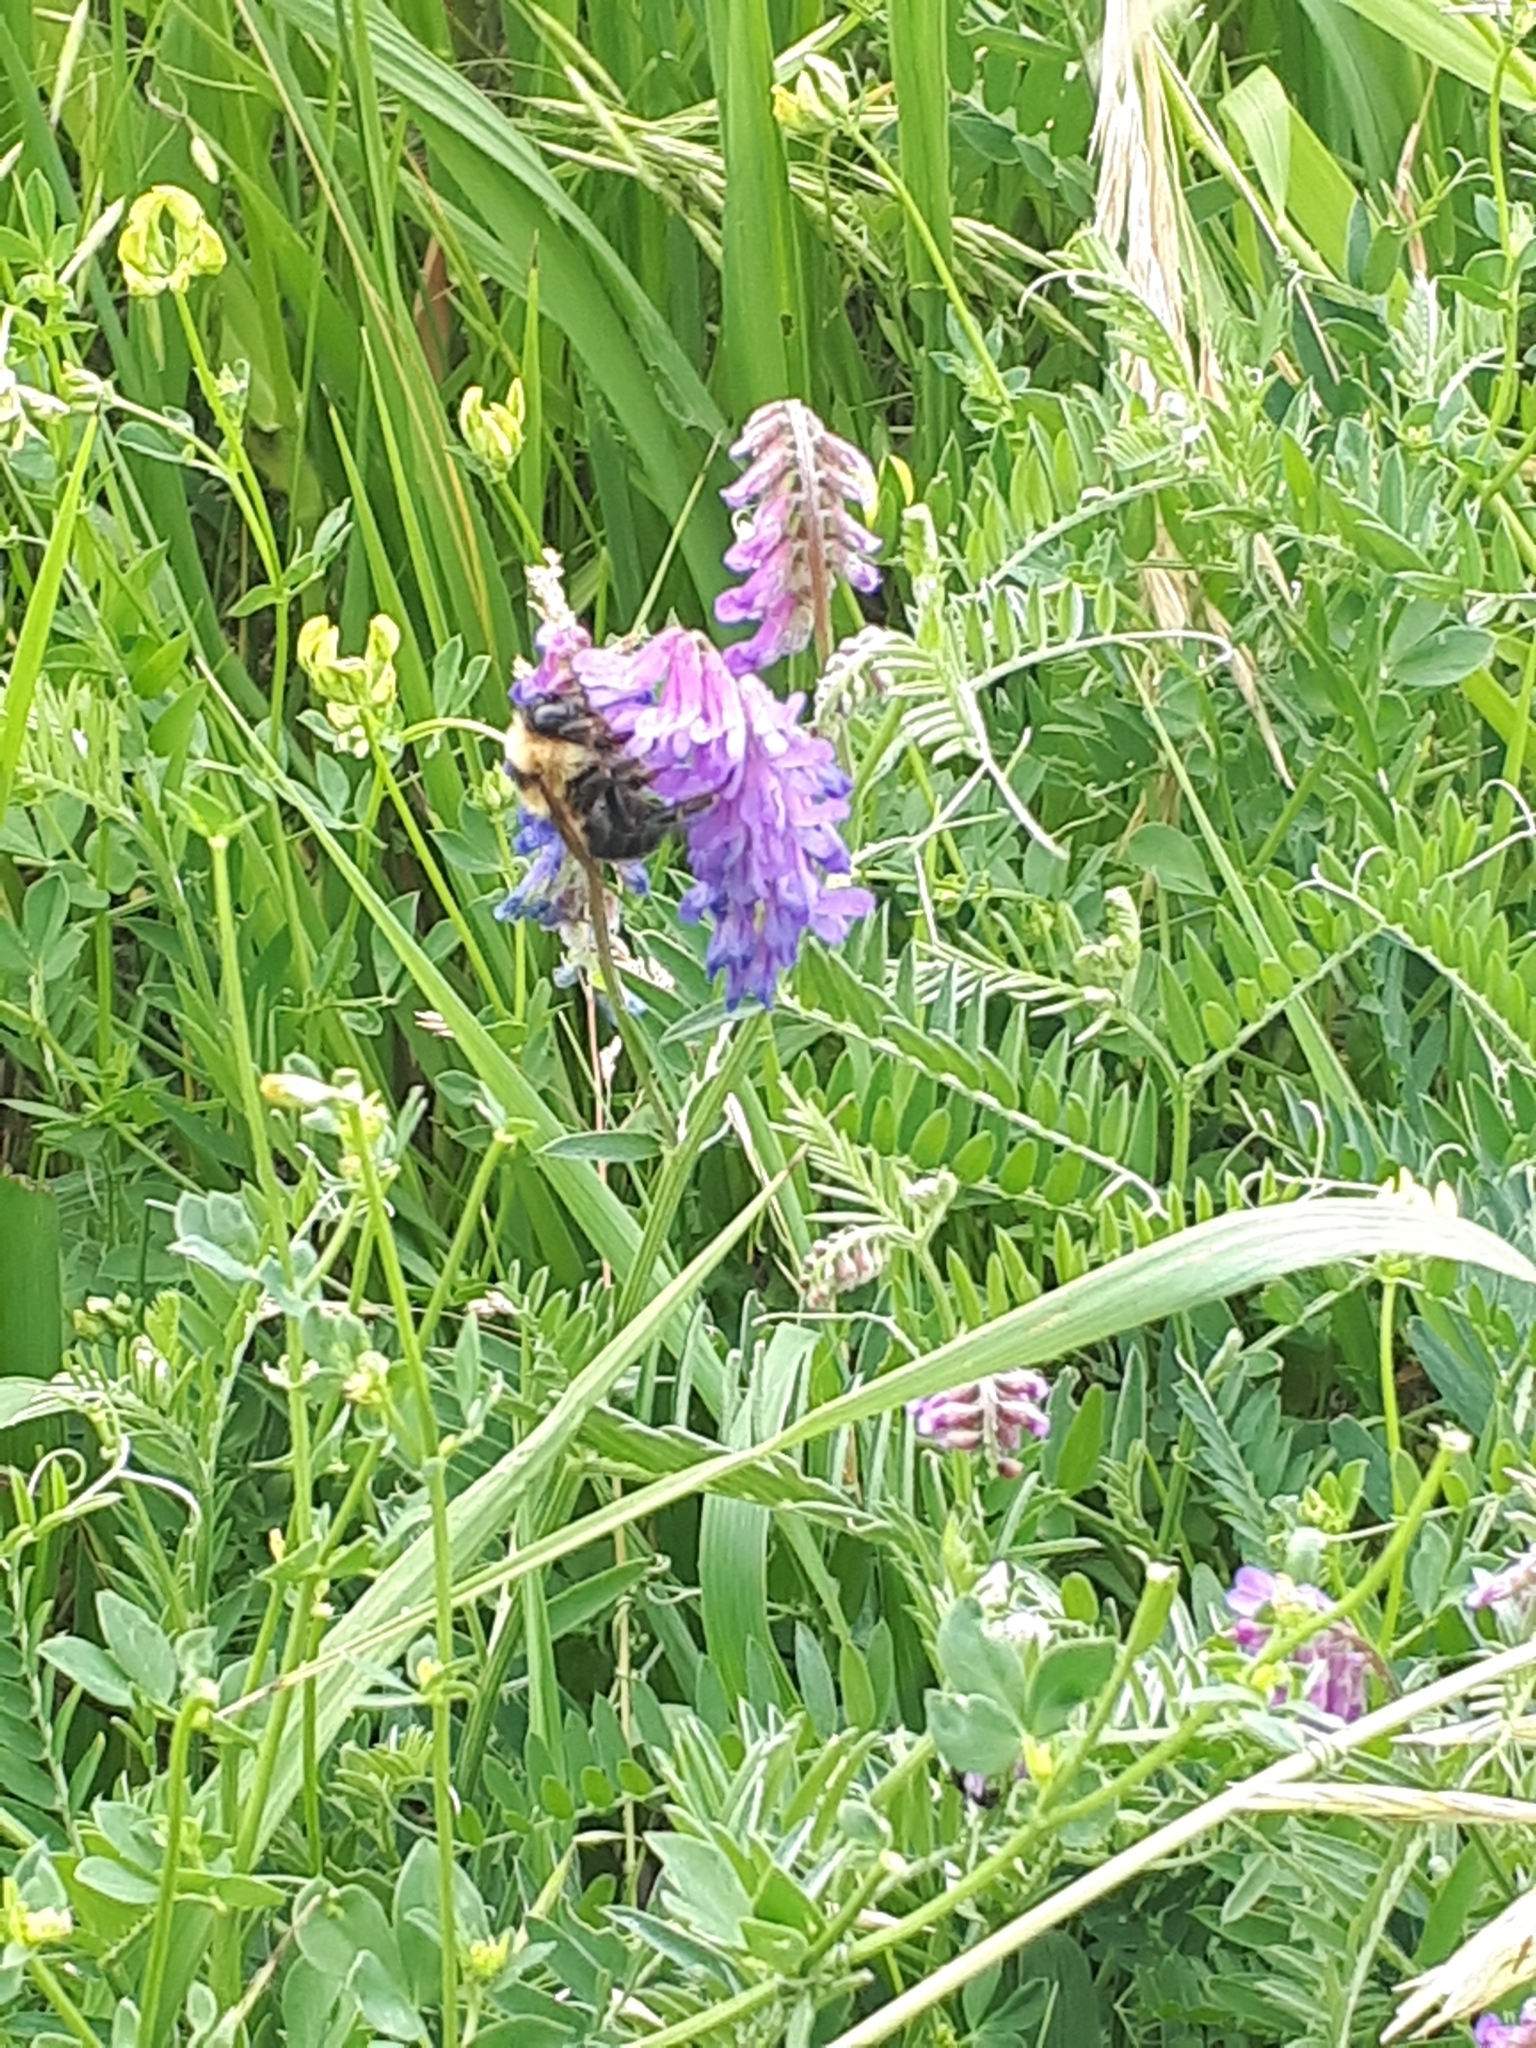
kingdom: Animalia
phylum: Arthropoda
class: Insecta
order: Hymenoptera
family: Apidae
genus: Bombus
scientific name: Bombus rufocinctus
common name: Red-belted bumble bee
